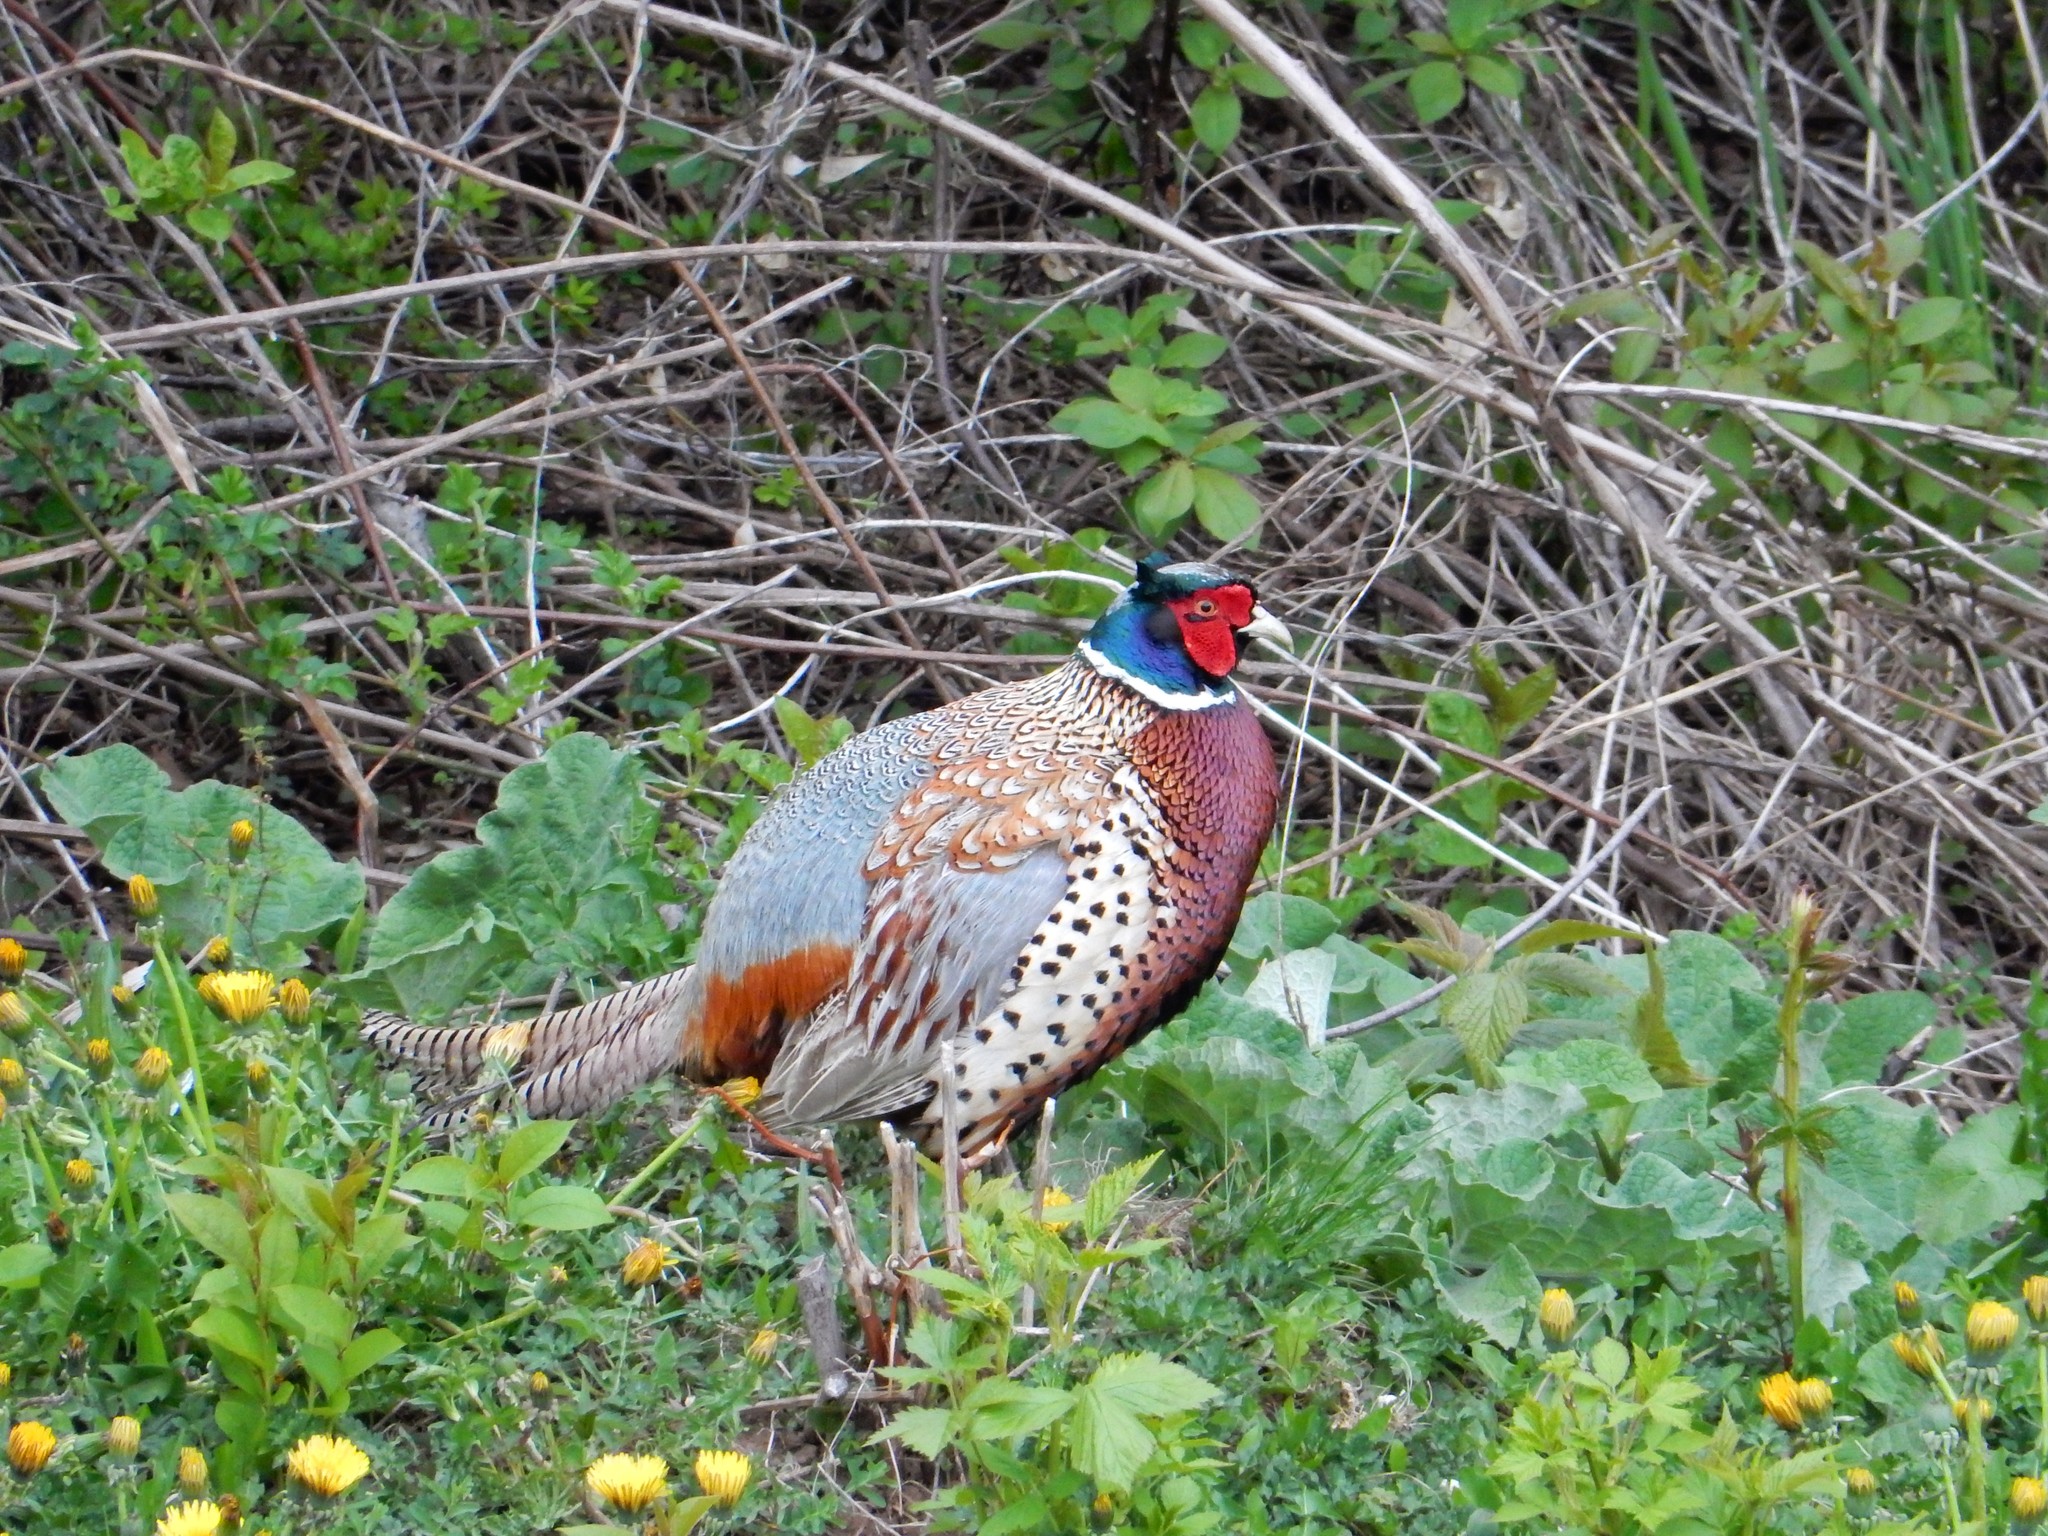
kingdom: Animalia
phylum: Chordata
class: Aves
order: Galliformes
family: Phasianidae
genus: Phasianus
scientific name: Phasianus colchicus
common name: Common pheasant
